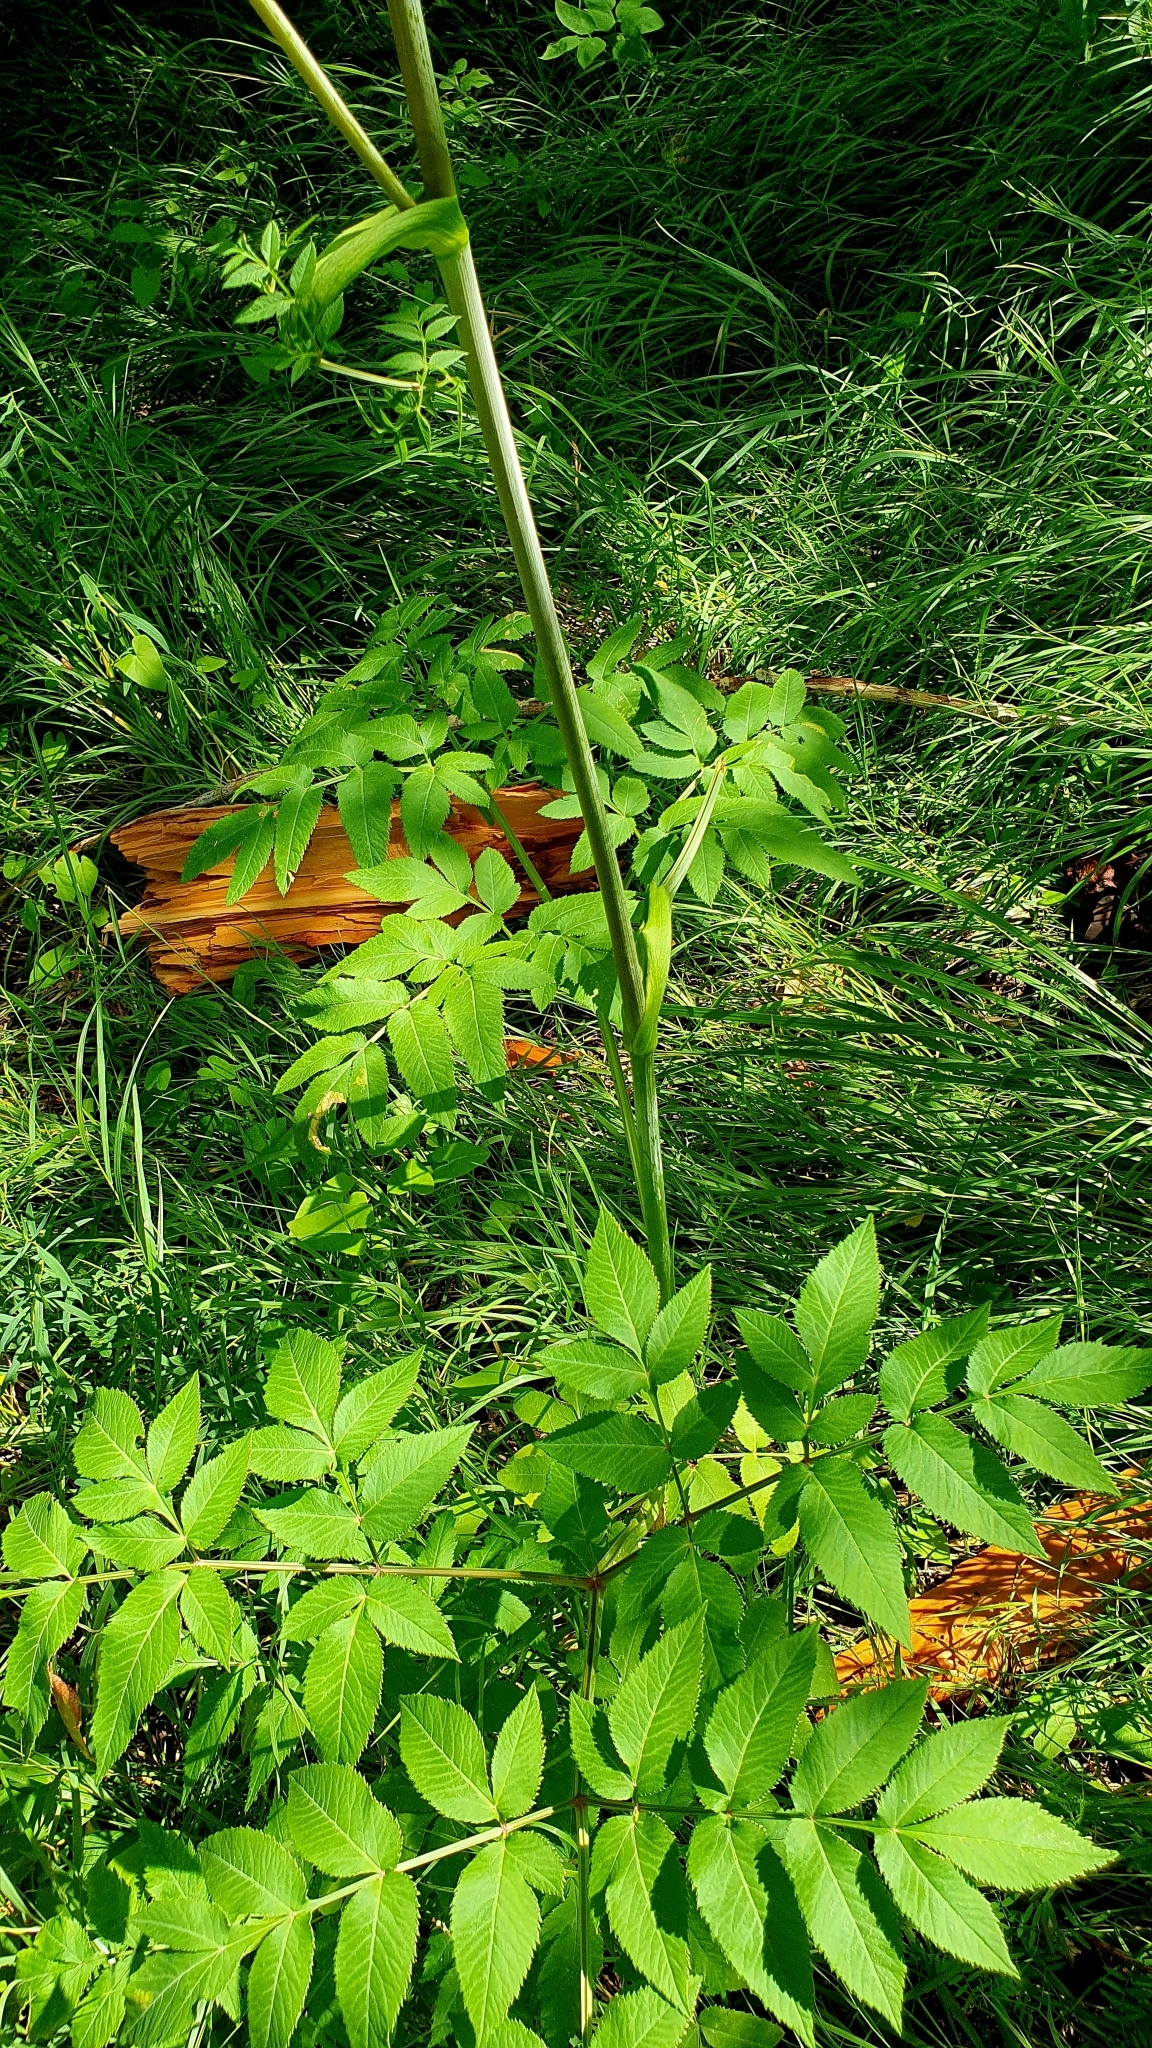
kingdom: Plantae
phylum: Tracheophyta
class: Magnoliopsida
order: Apiales
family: Apiaceae
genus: Angelica
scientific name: Angelica sylvestris
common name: Wild angelica
